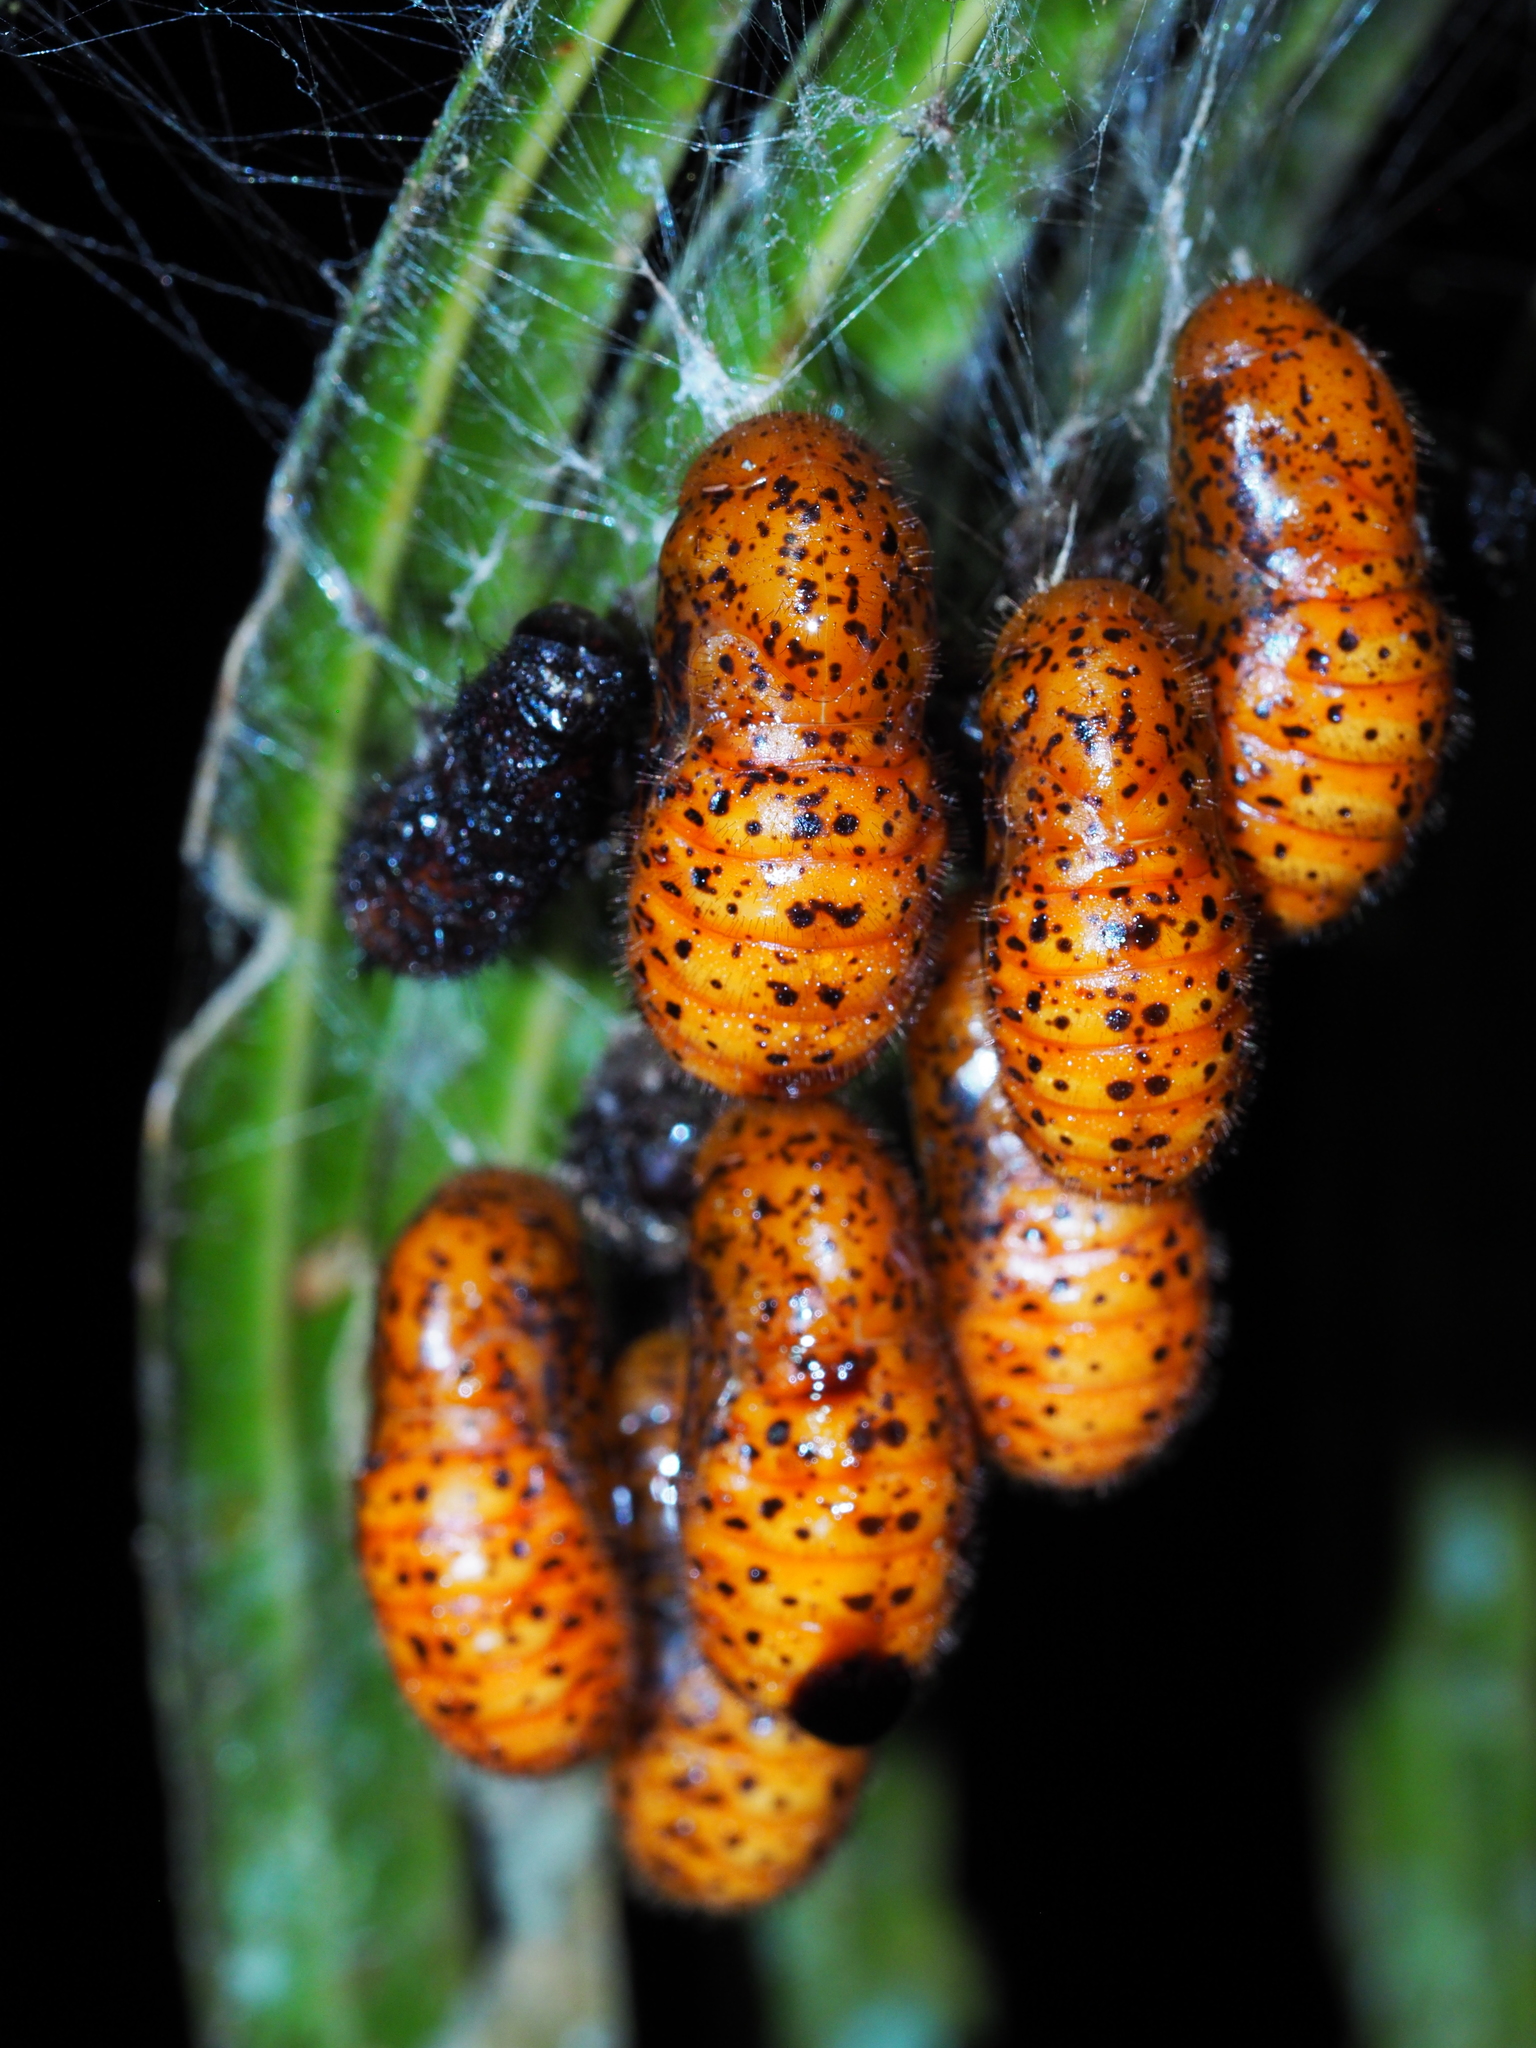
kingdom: Animalia
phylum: Arthropoda
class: Insecta
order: Lepidoptera
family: Lycaenidae
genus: Eumaeus
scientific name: Eumaeus godartii
